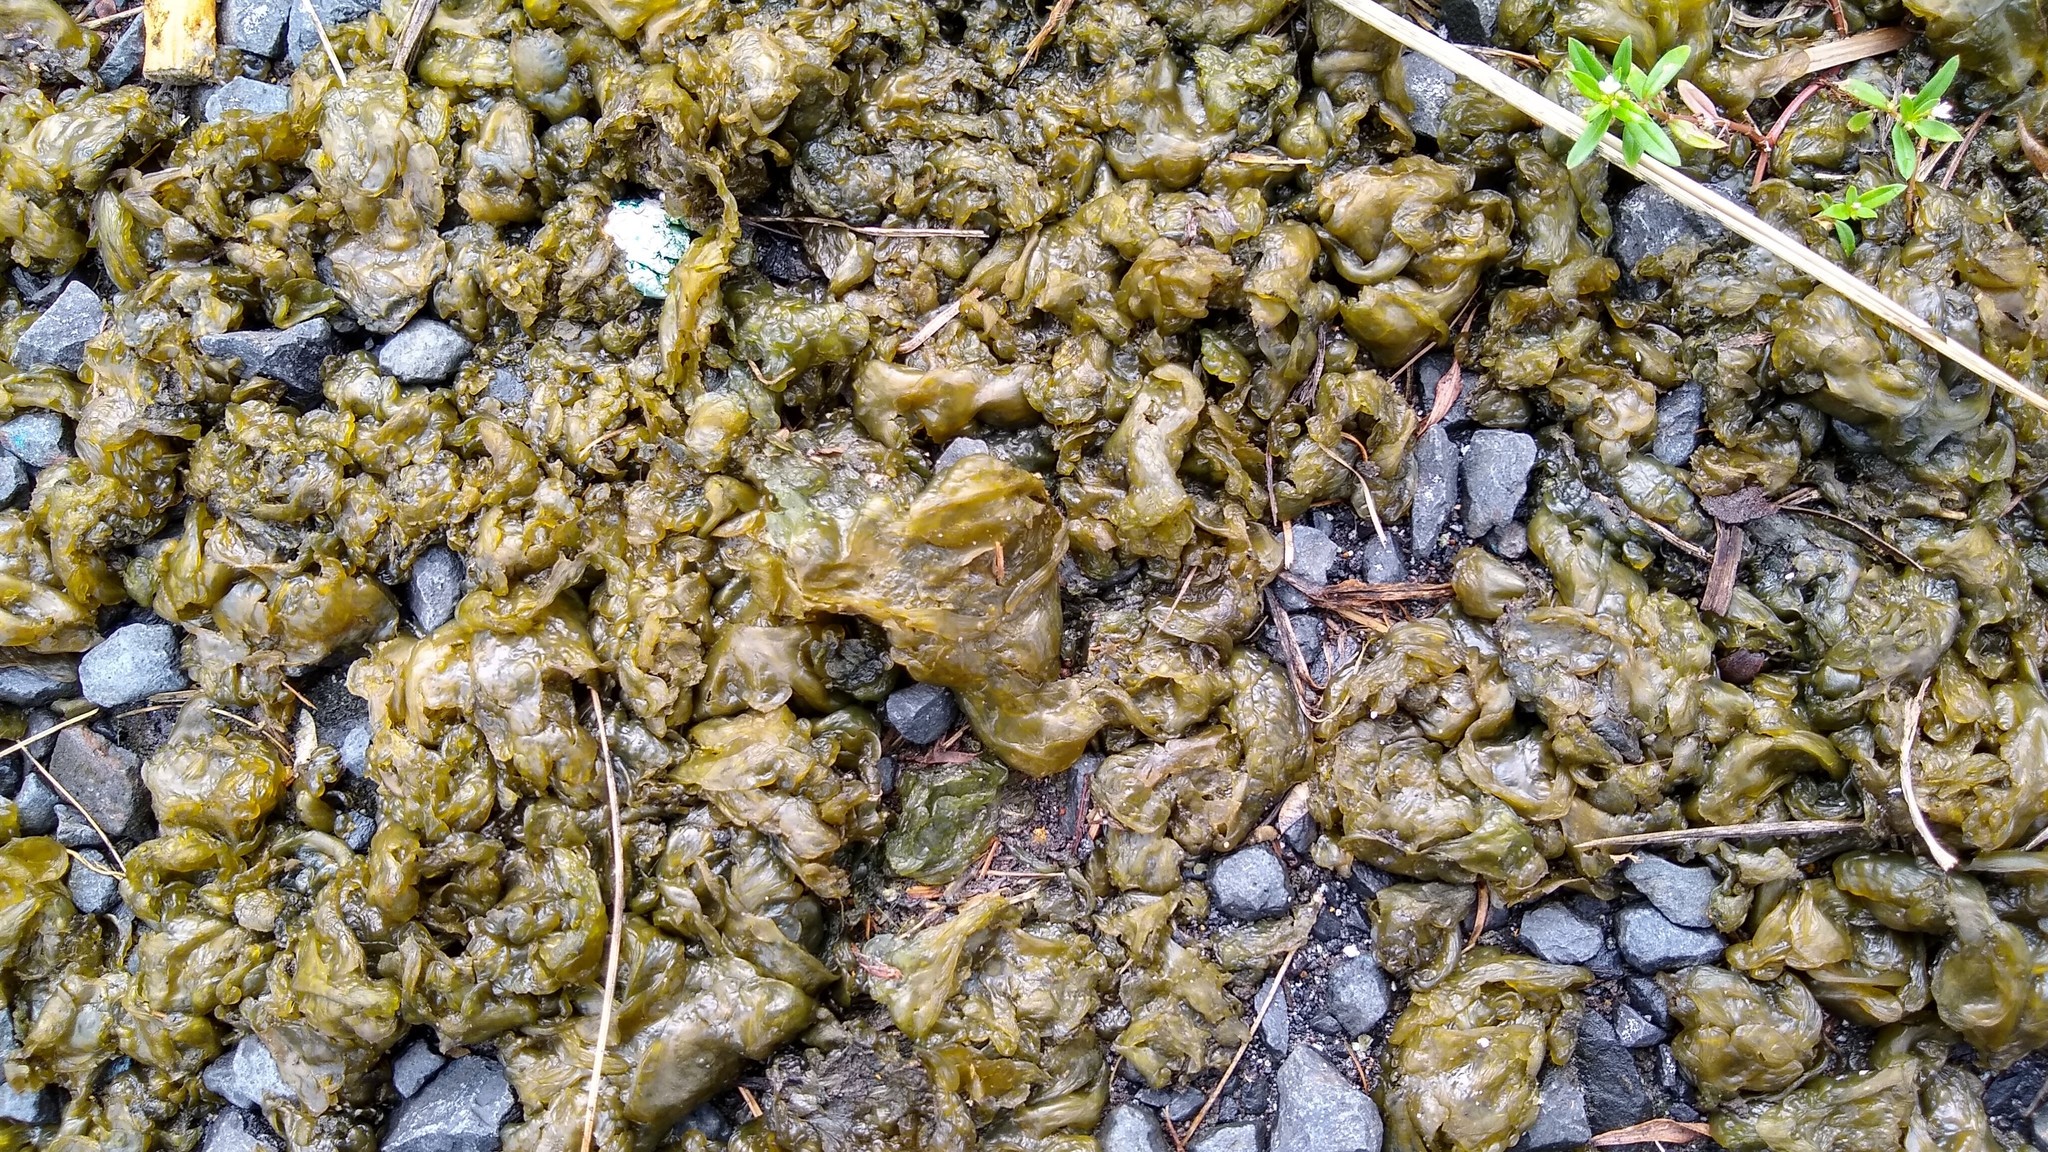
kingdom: Bacteria
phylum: Cyanobacteria
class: Cyanobacteriia
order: Cyanobacteriales
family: Nostocaceae
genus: Nostoc
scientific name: Nostoc commune
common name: Star jelly
